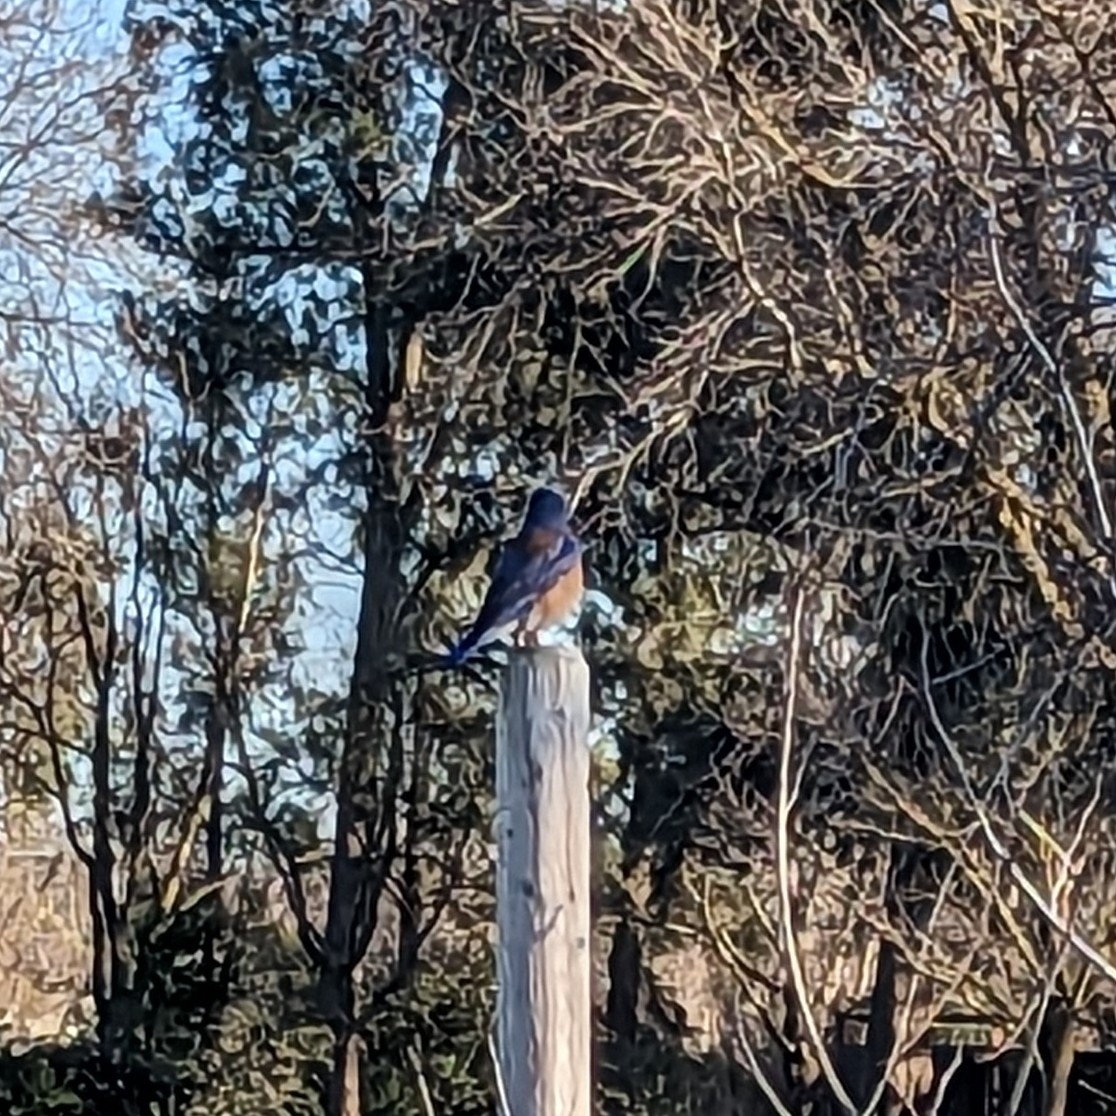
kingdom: Animalia
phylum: Chordata
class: Aves
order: Passeriformes
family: Turdidae
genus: Sialia
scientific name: Sialia mexicana
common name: Western bluebird
